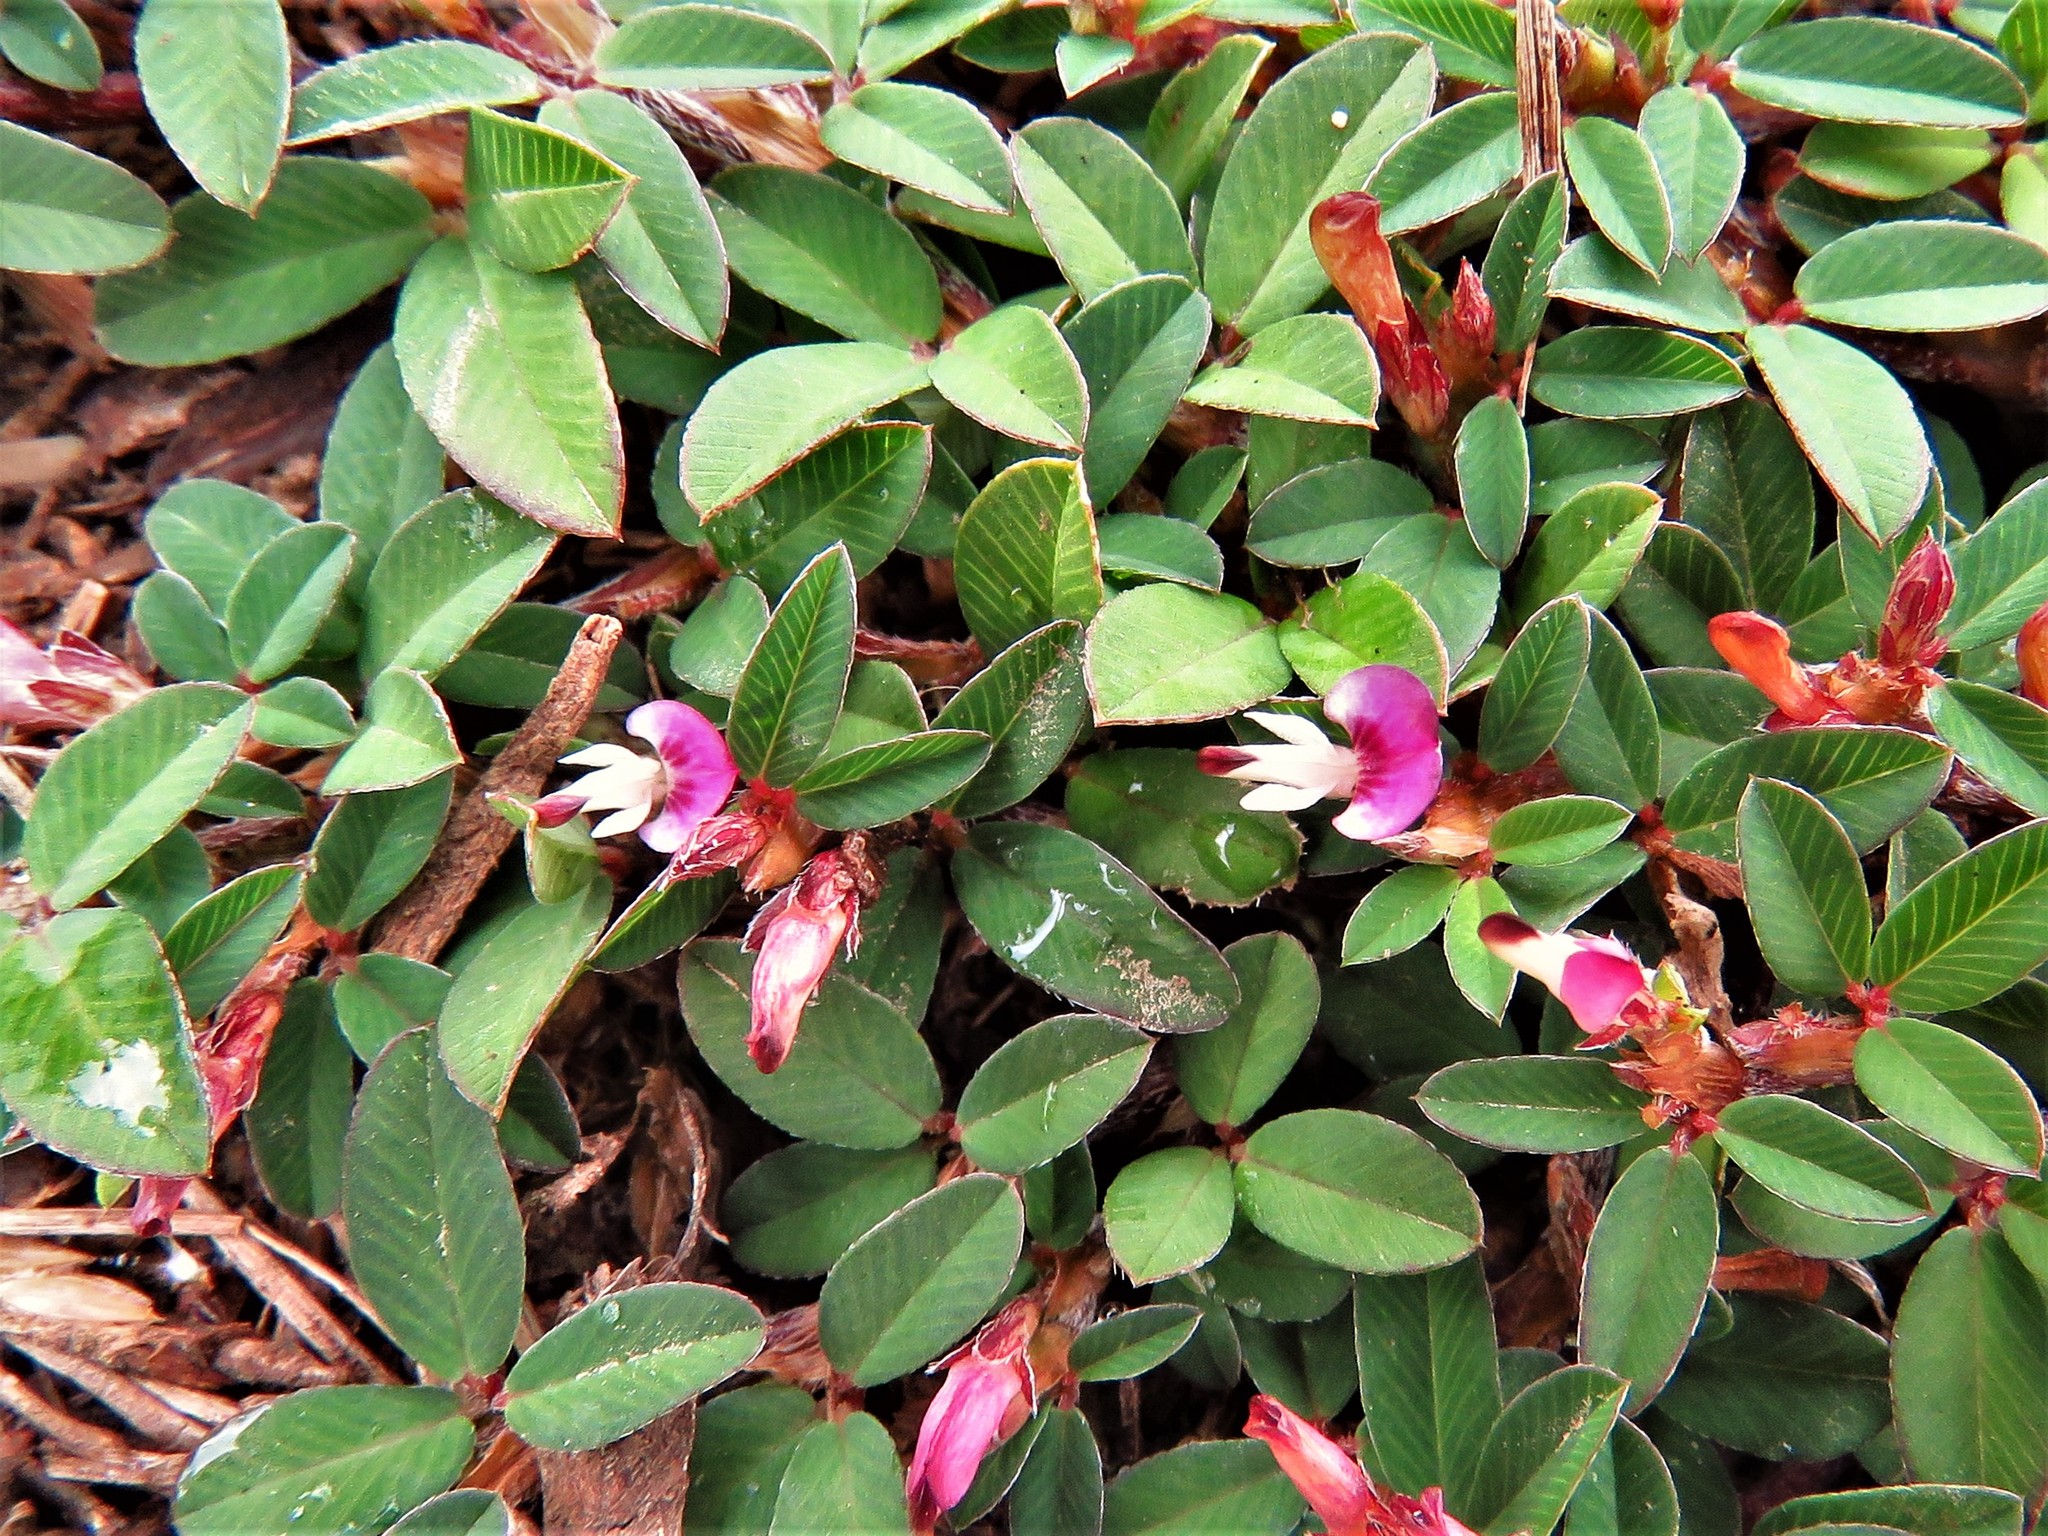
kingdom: Plantae
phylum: Tracheophyta
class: Magnoliopsida
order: Fabales
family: Fabaceae
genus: Kummerowia
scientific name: Kummerowia striata
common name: Japanese clover
